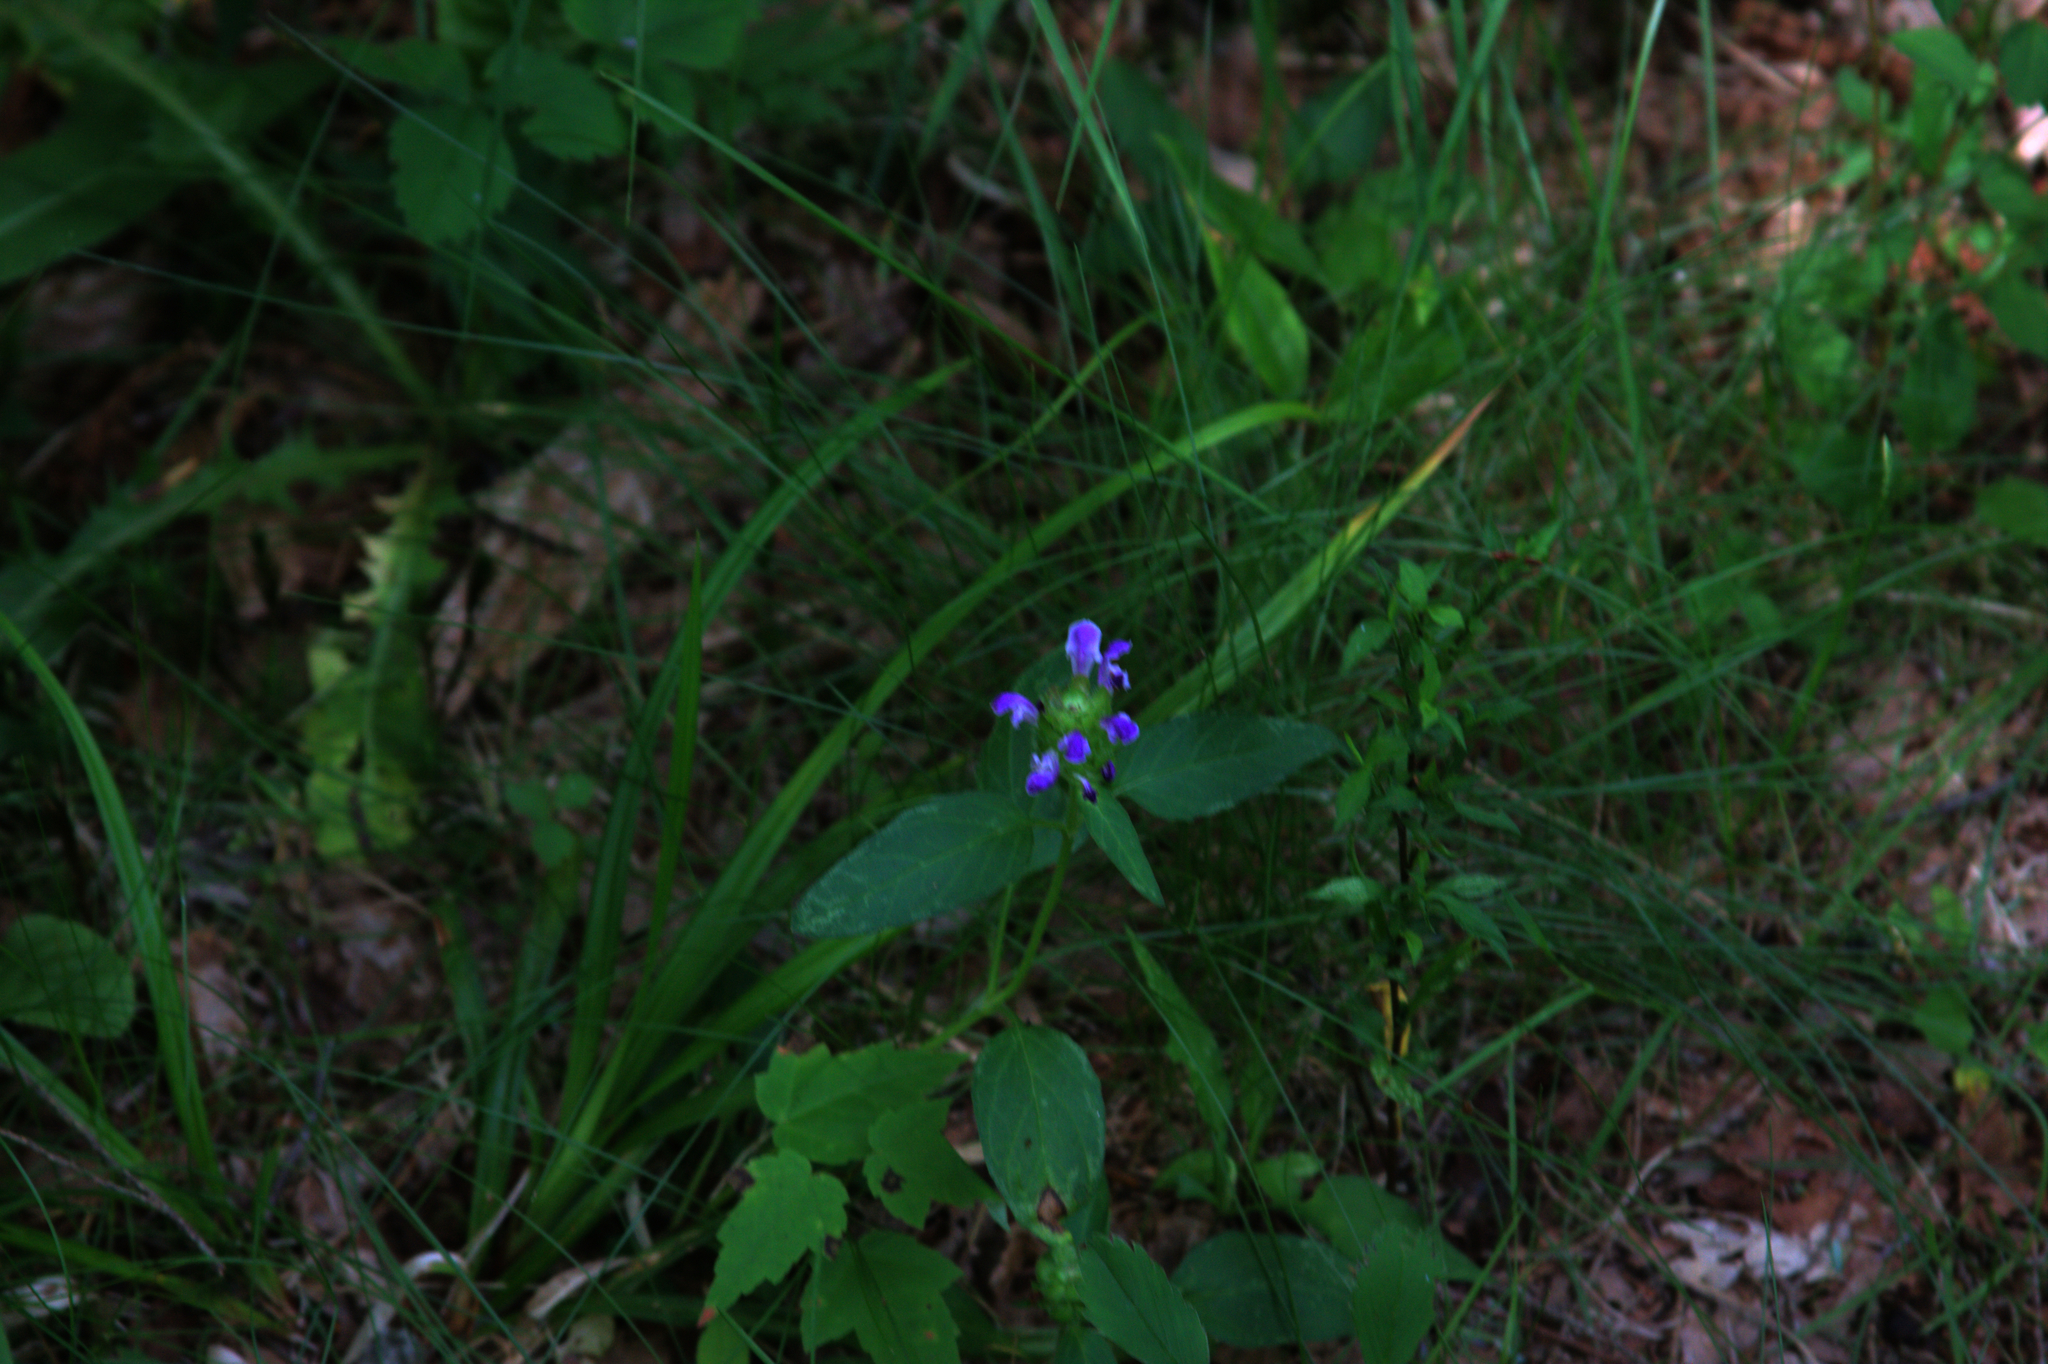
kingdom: Plantae
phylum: Tracheophyta
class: Magnoliopsida
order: Lamiales
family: Lamiaceae
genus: Prunella
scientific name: Prunella vulgaris
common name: Heal-all
